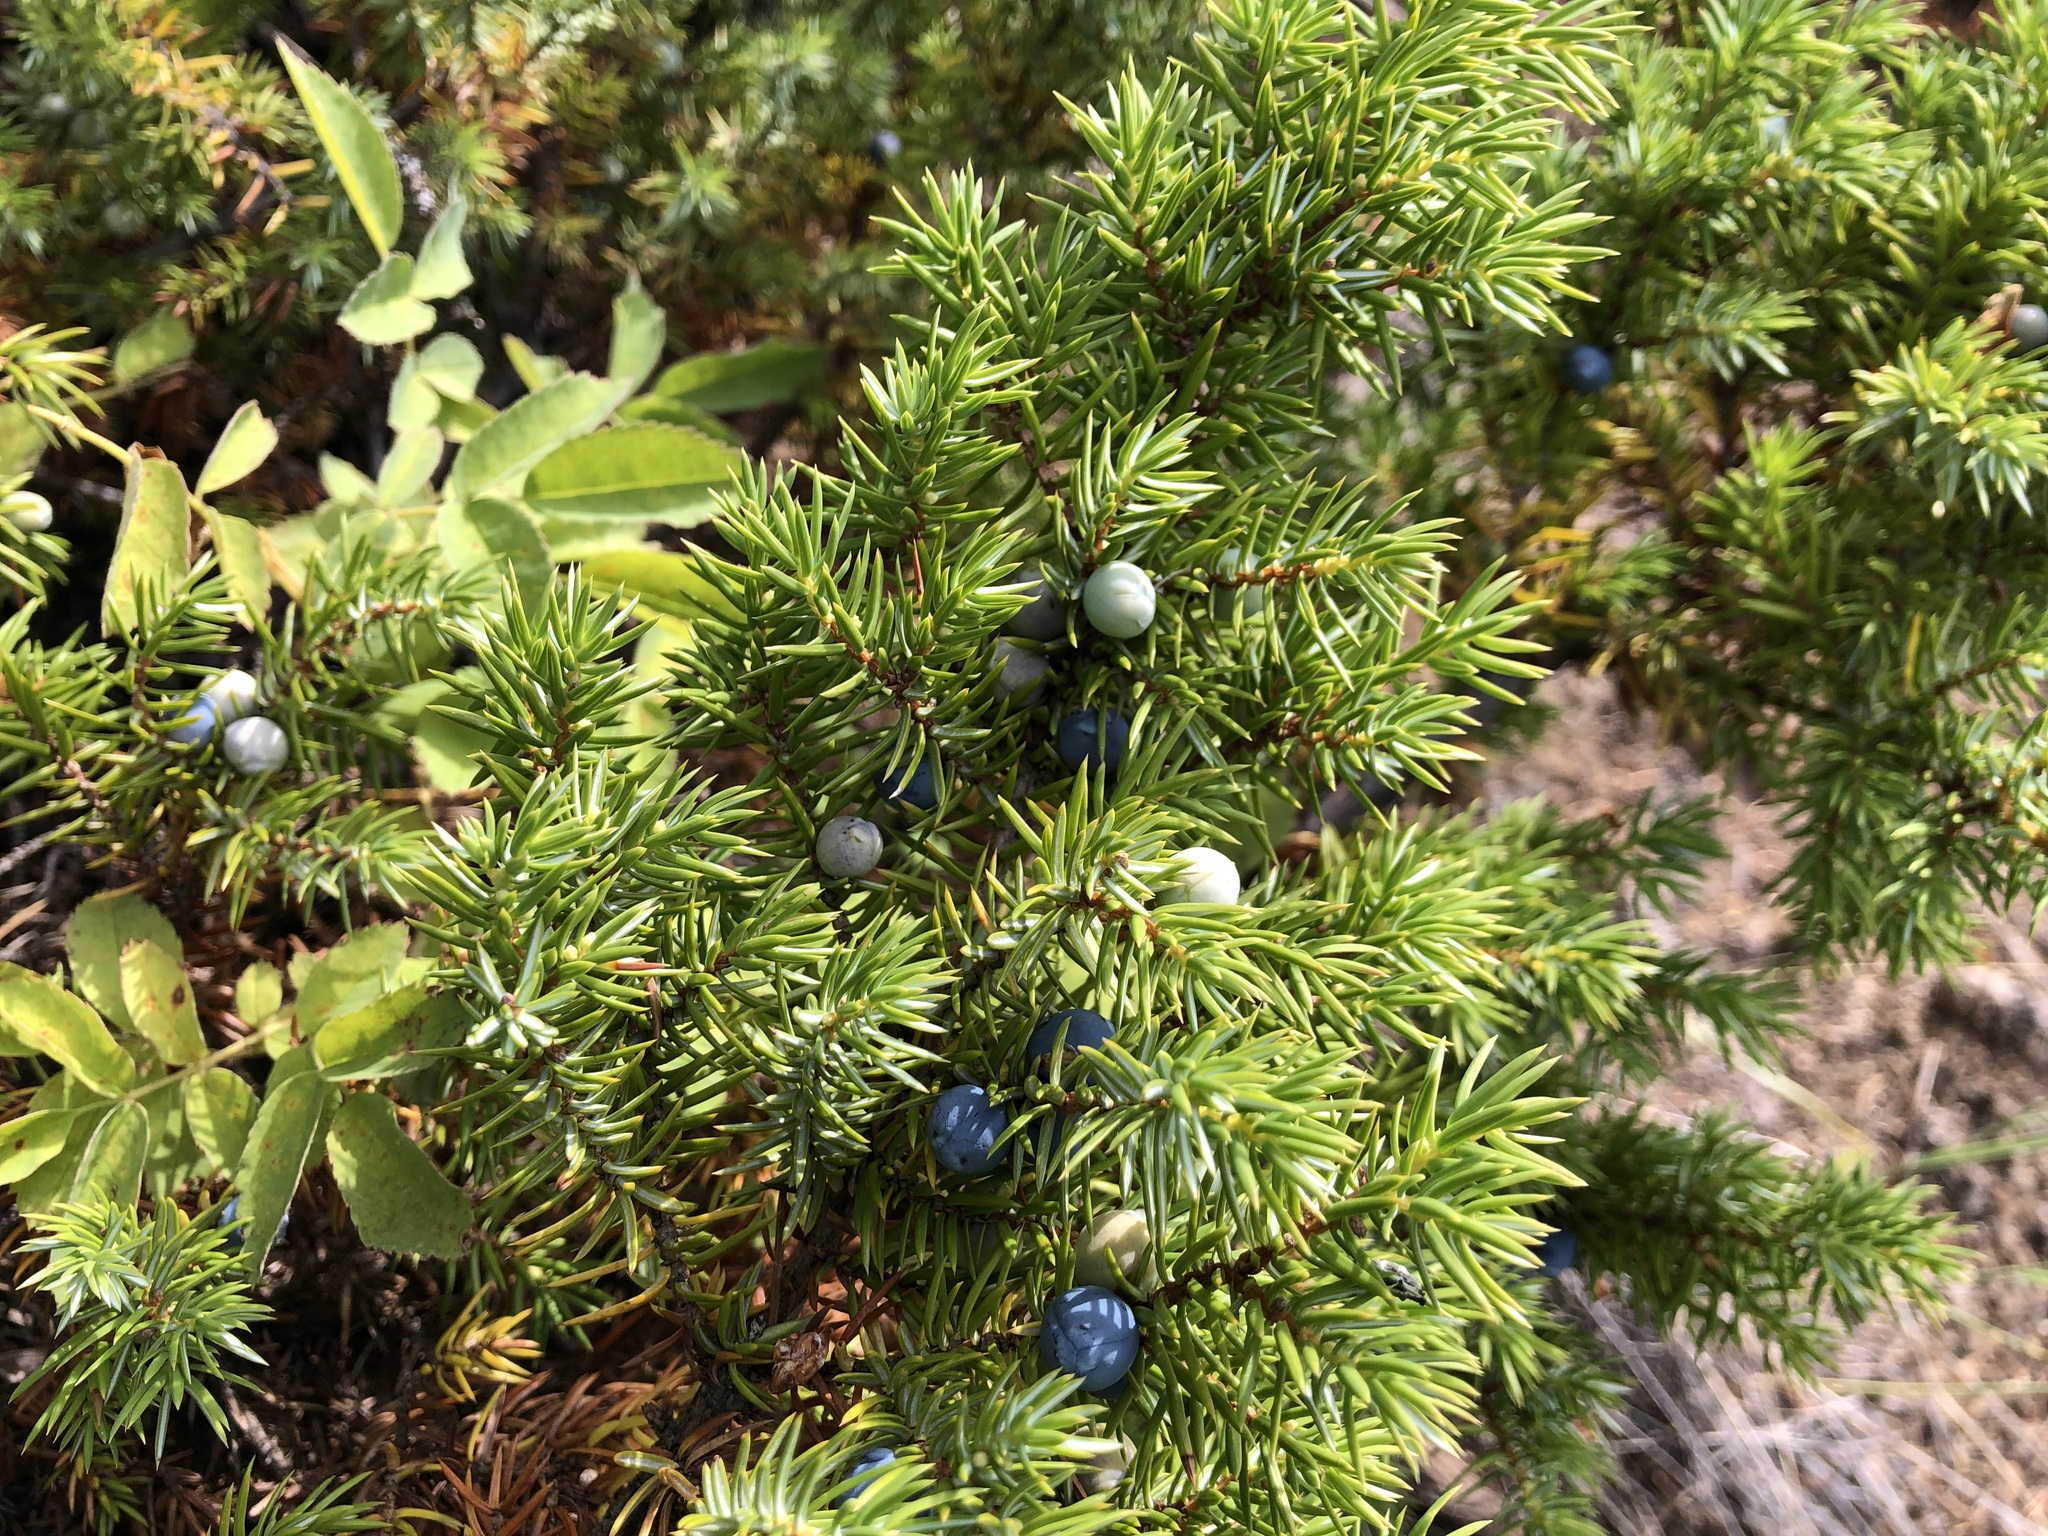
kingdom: Plantae
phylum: Tracheophyta
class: Pinopsida
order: Pinales
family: Cupressaceae
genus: Juniperus
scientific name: Juniperus communis
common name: Common juniper
